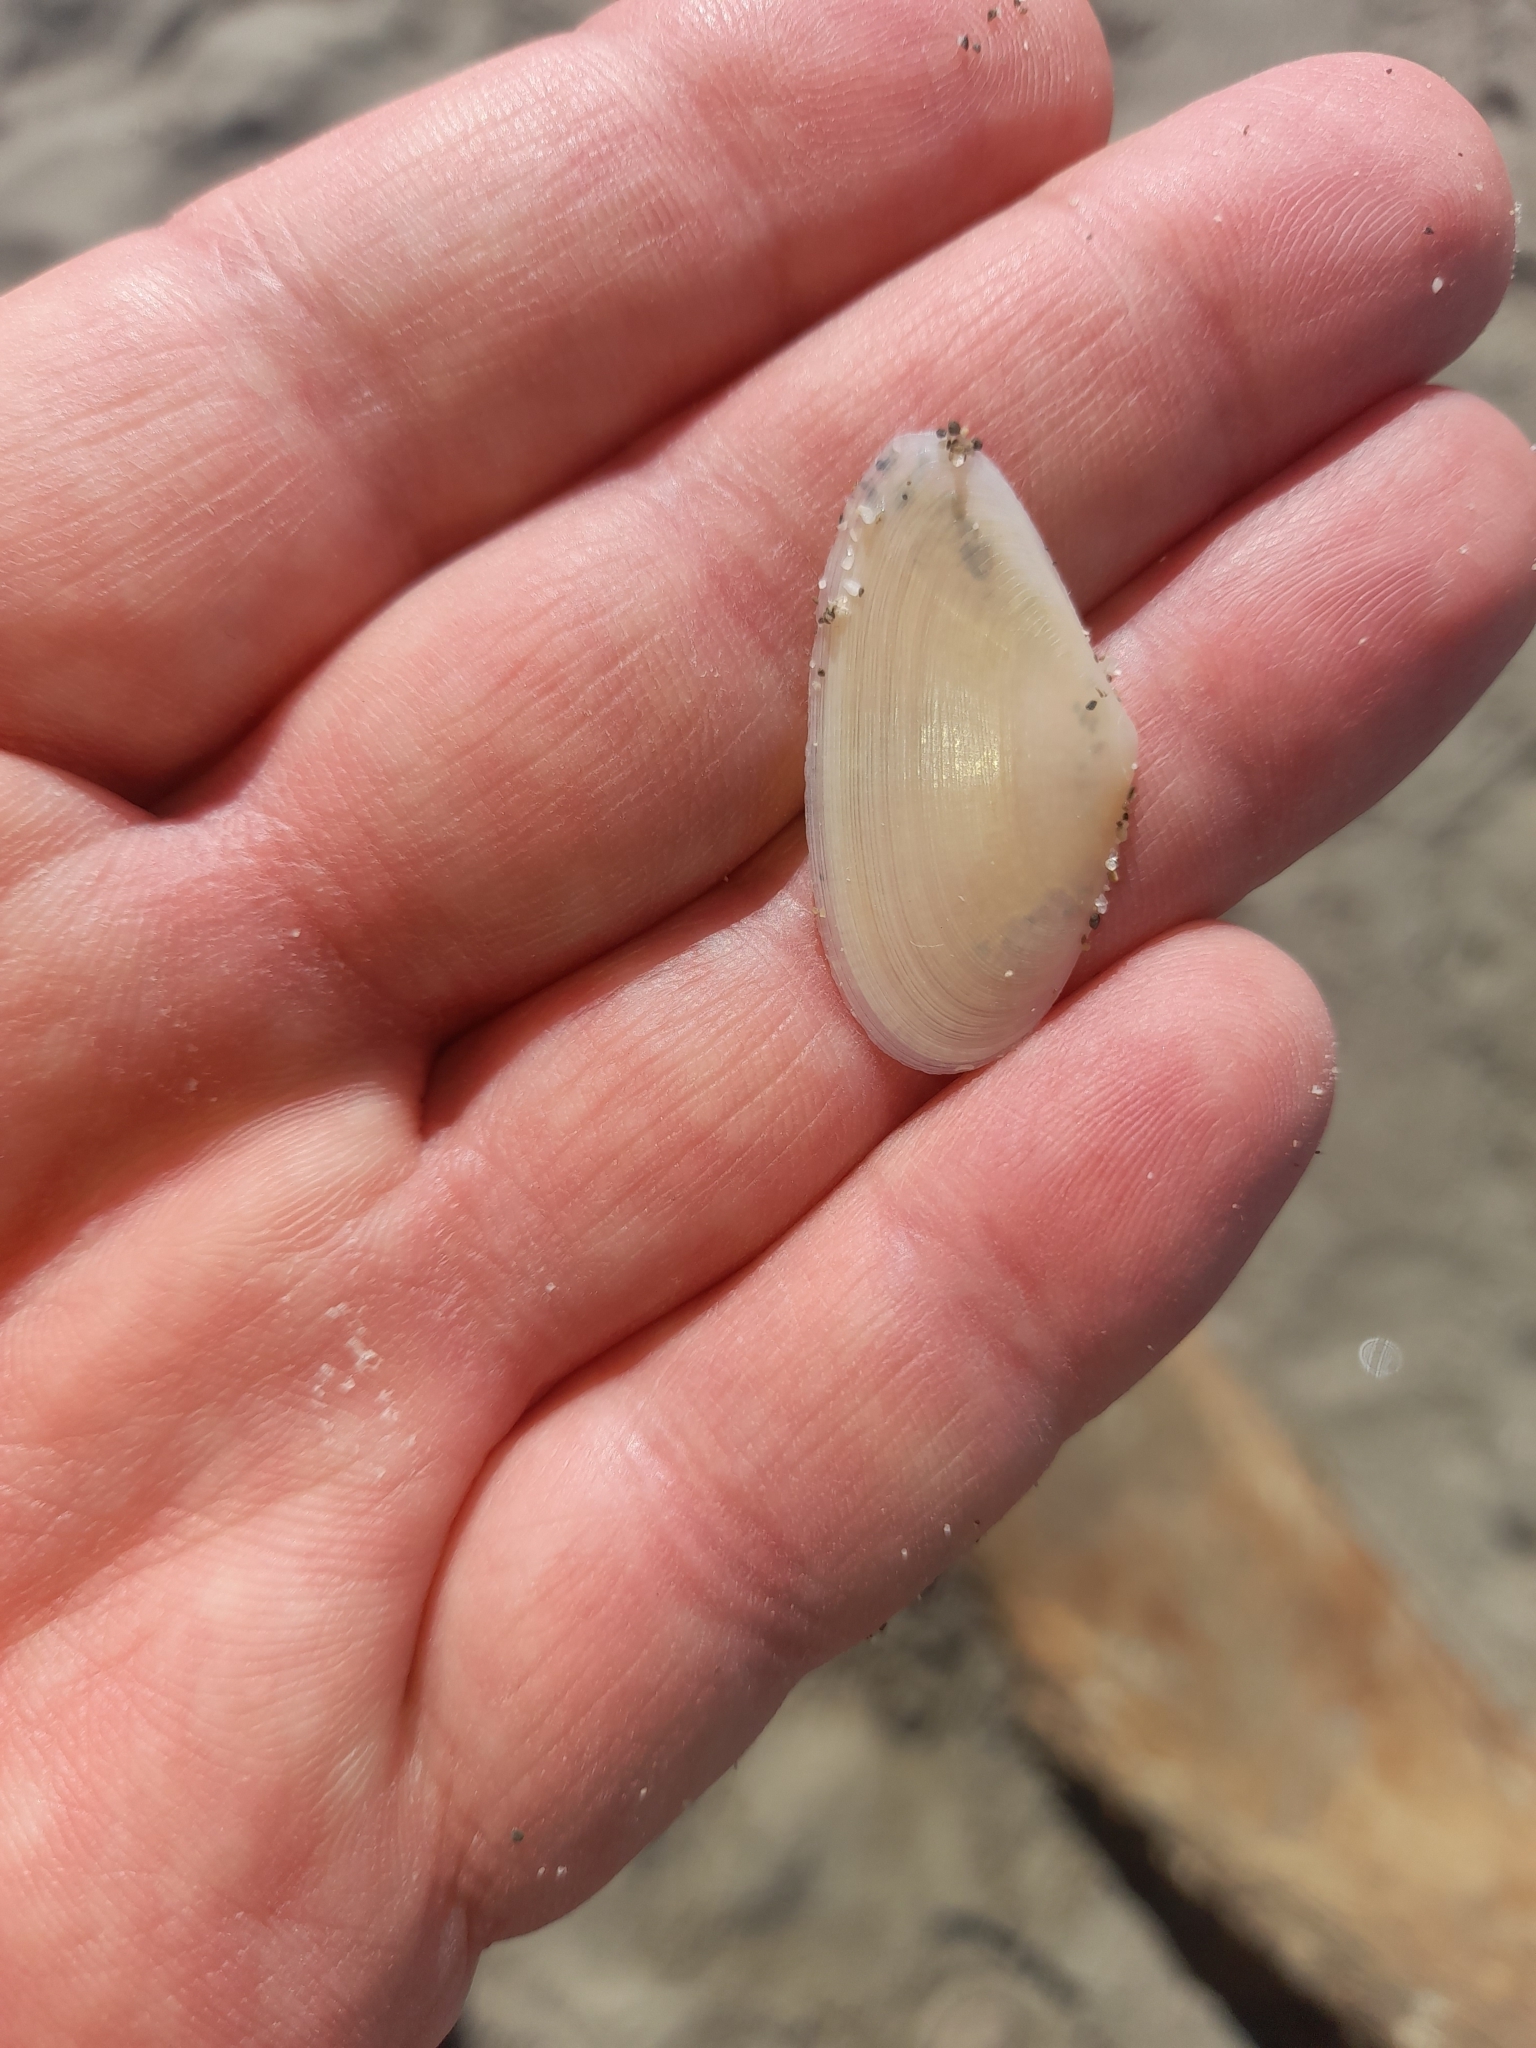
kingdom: Animalia
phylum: Mollusca
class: Bivalvia
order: Cardiida
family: Tellinidae
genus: Peronidia
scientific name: Peronidia albicans
